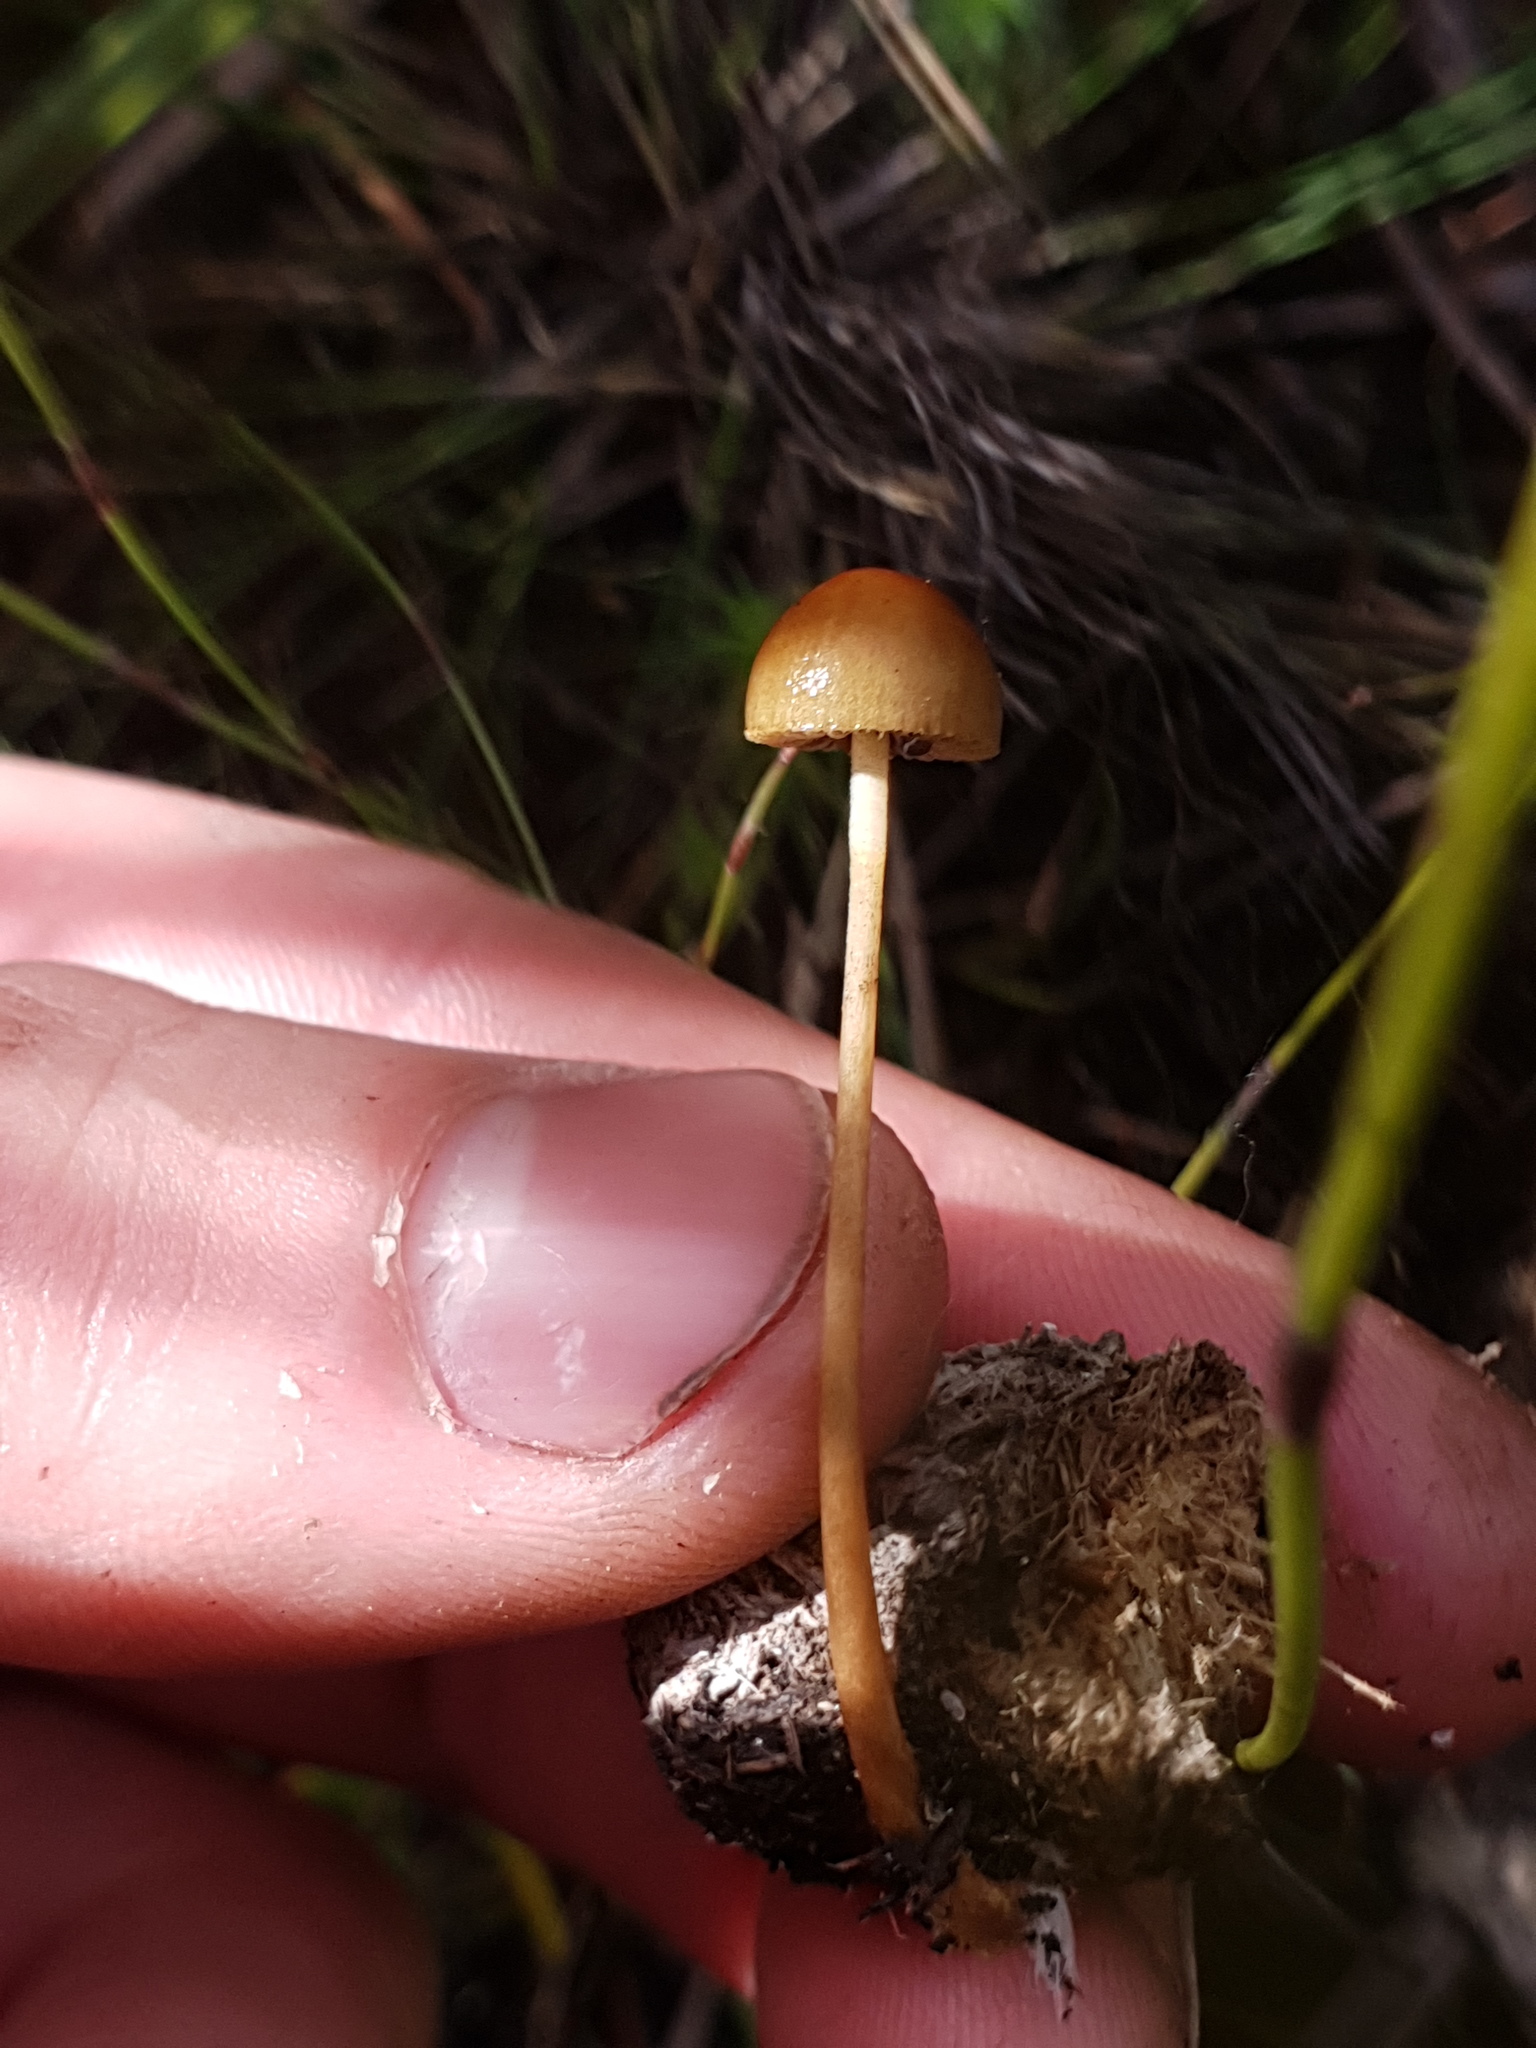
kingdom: Fungi
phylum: Basidiomycota
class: Agaricomycetes
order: Agaricales
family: Strophariaceae
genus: Deconica
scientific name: Deconica coprophila
